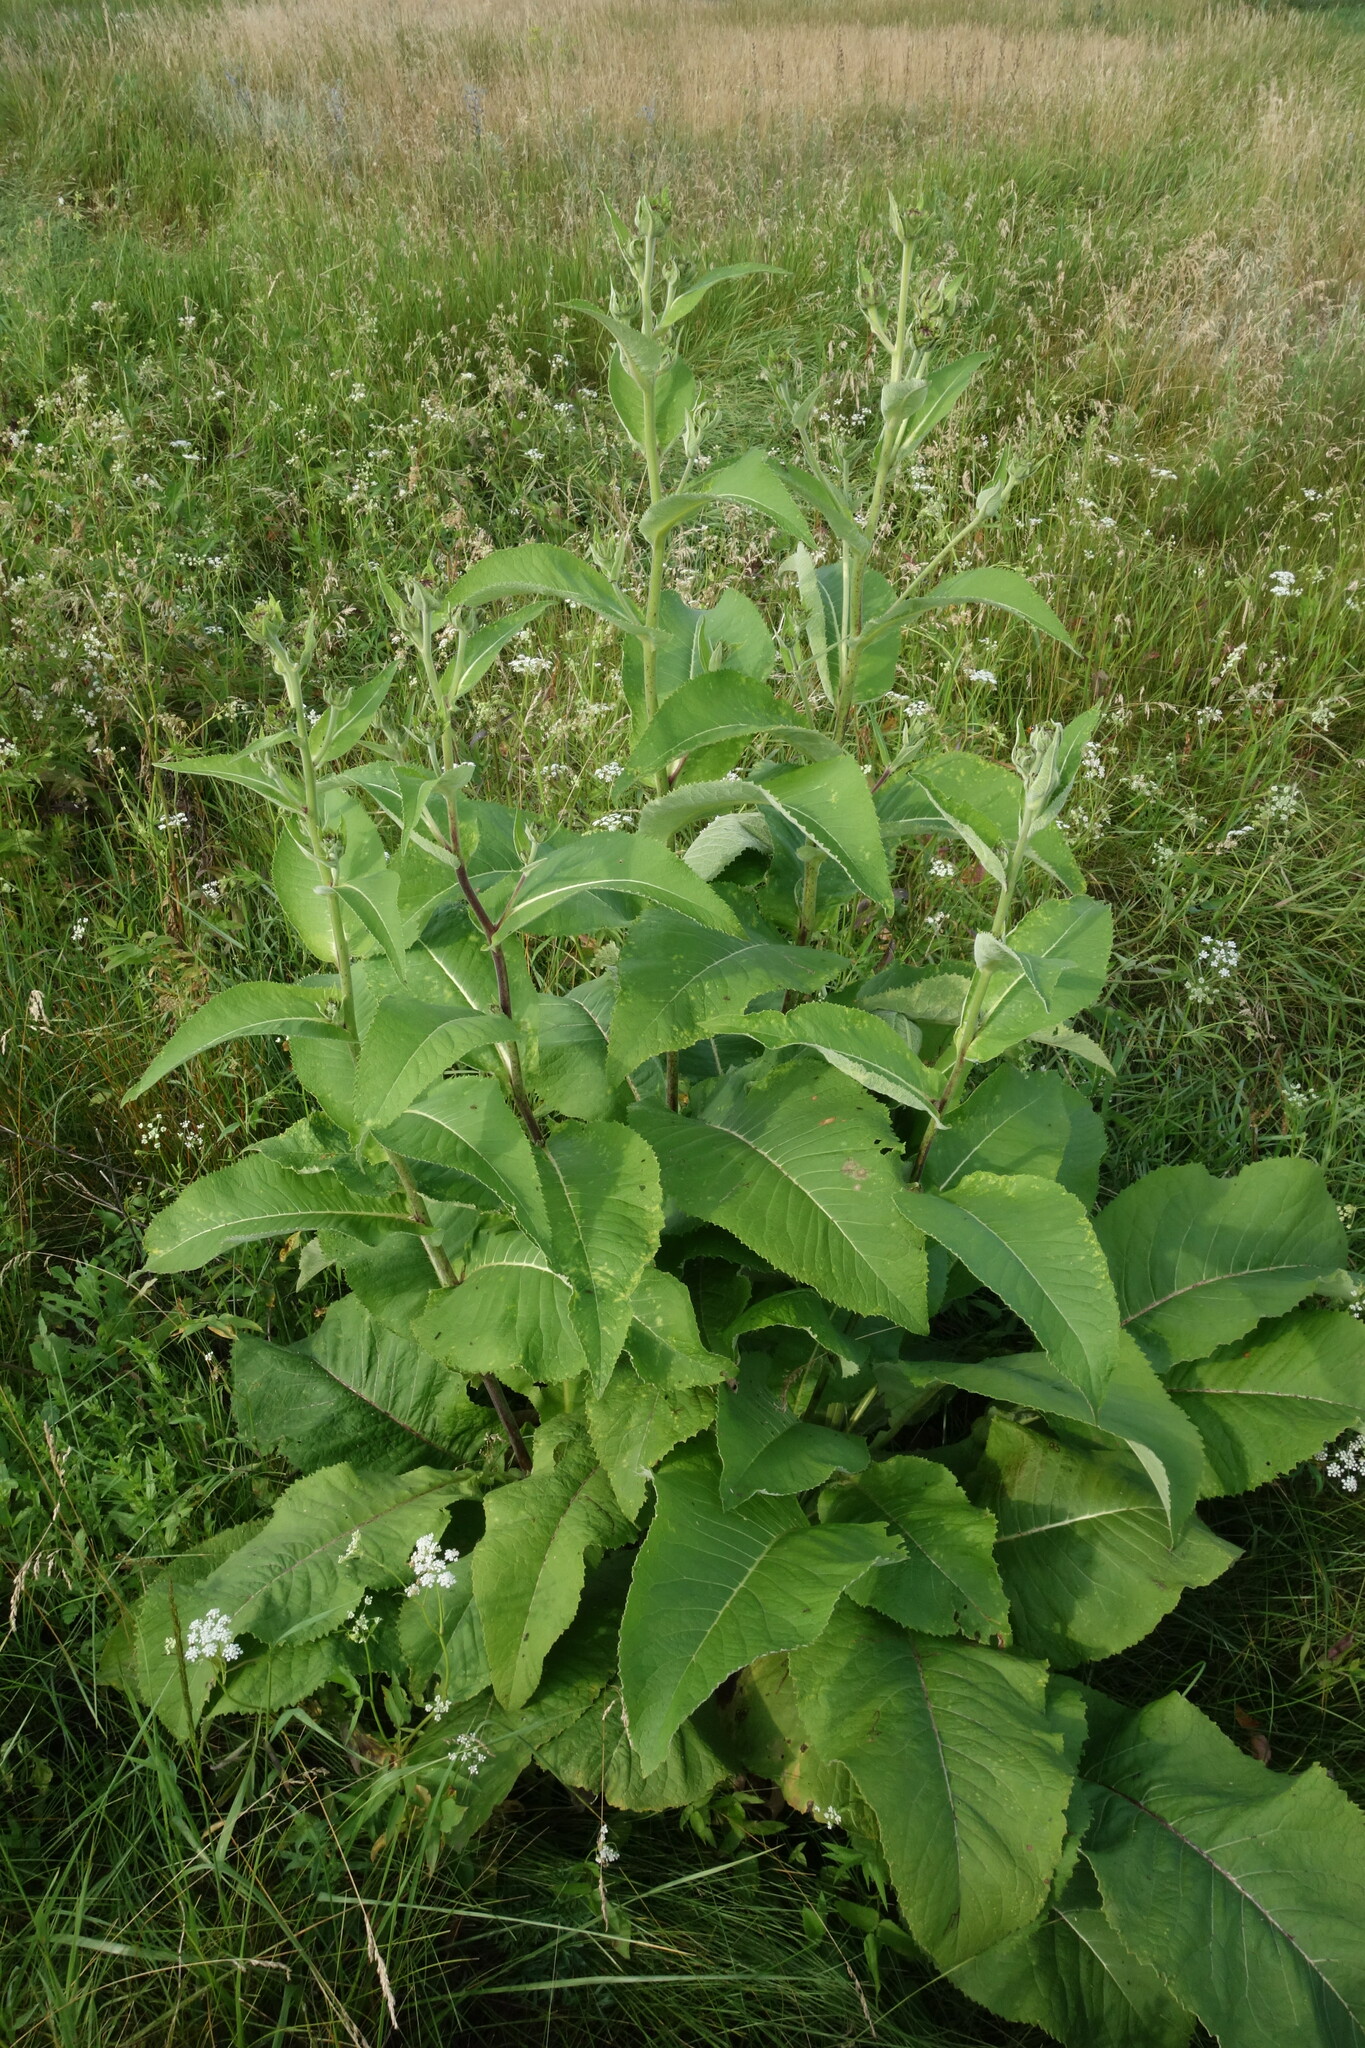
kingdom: Plantae
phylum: Tracheophyta
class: Magnoliopsida
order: Asterales
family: Asteraceae
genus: Inula
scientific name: Inula helenium
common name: Elecampane
